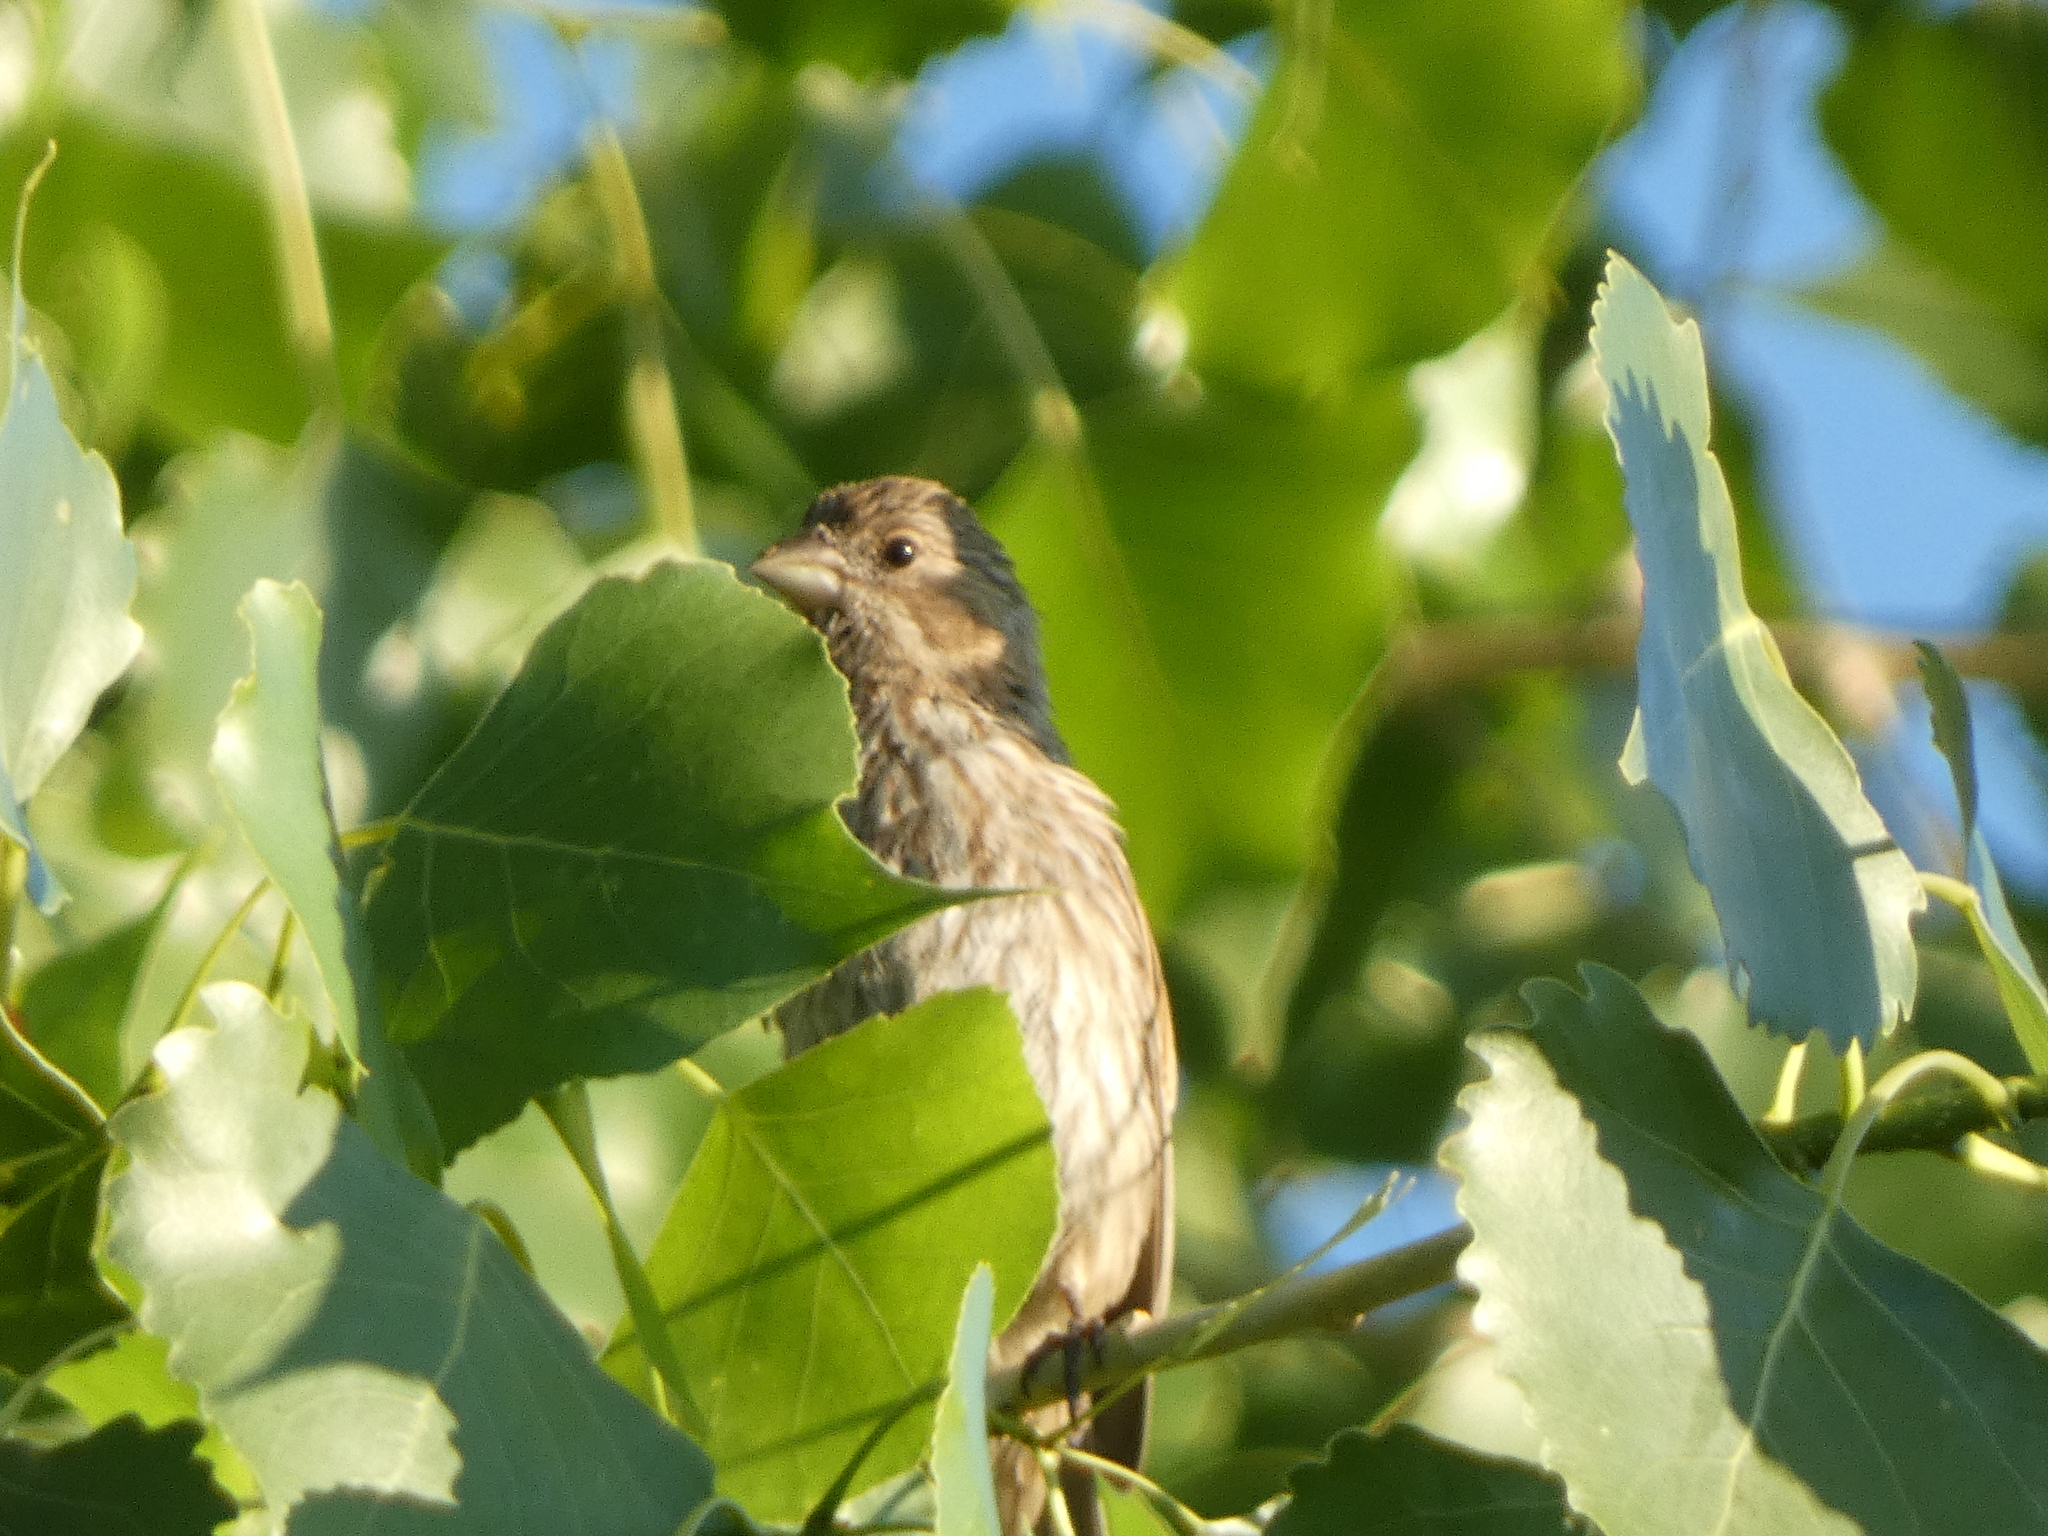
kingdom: Animalia
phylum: Chordata
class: Aves
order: Passeriformes
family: Fringillidae
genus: Haemorhous
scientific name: Haemorhous mexicanus
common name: House finch
